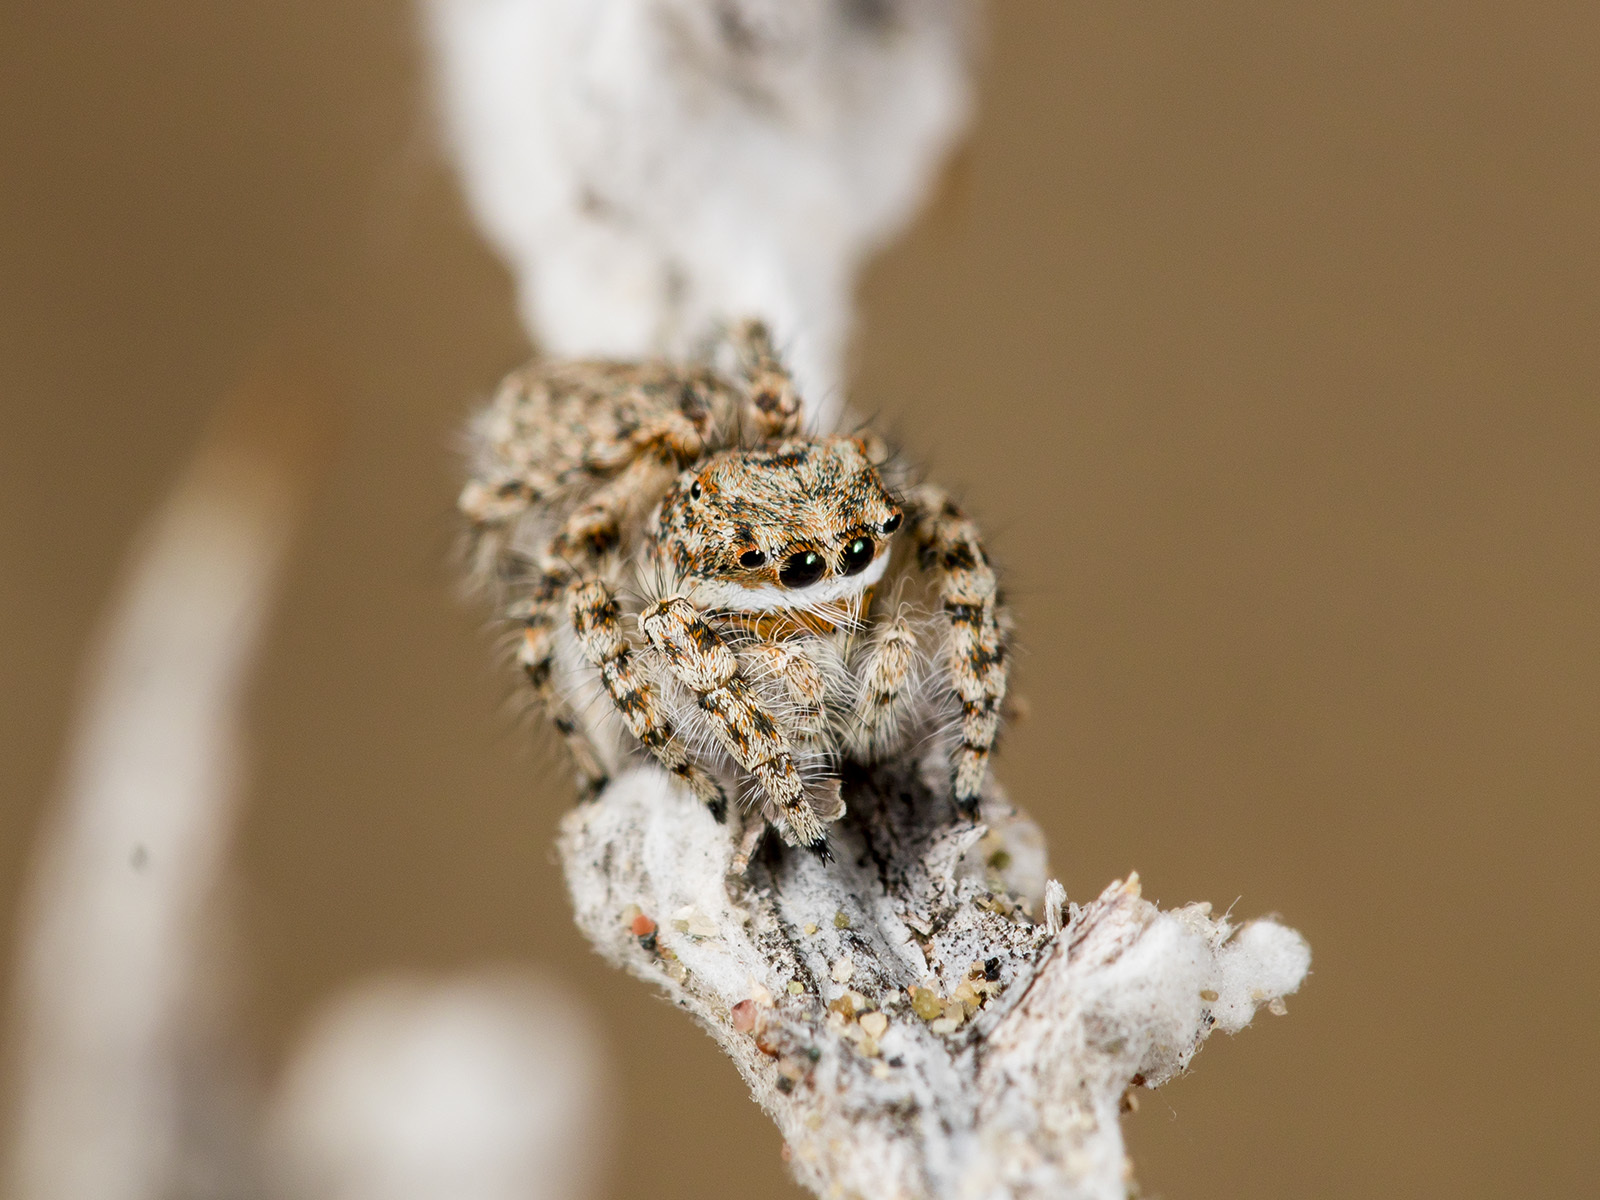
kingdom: Animalia
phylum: Arthropoda
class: Arachnida
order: Araneae
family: Salticidae
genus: Yllenus
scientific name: Yllenus uiguricus
